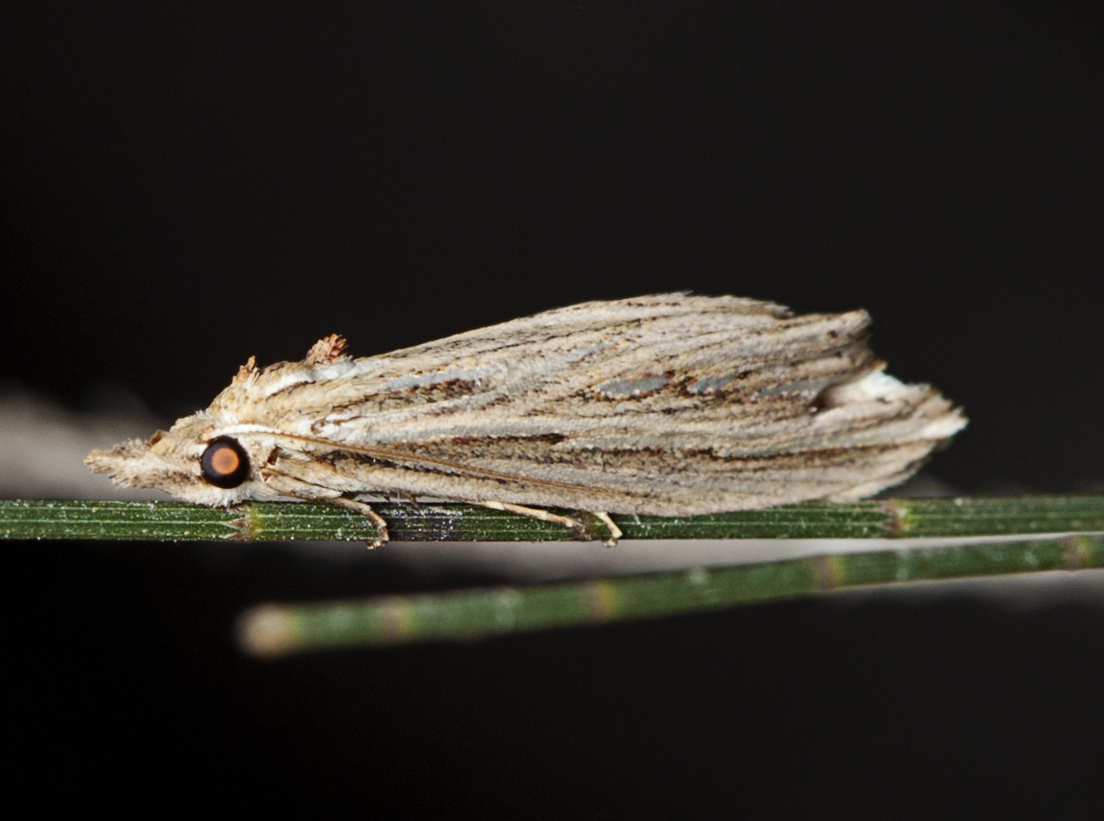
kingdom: Animalia
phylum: Arthropoda
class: Insecta
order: Lepidoptera
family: Erebidae
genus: Meyrickella
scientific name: Meyrickella ruptellus
